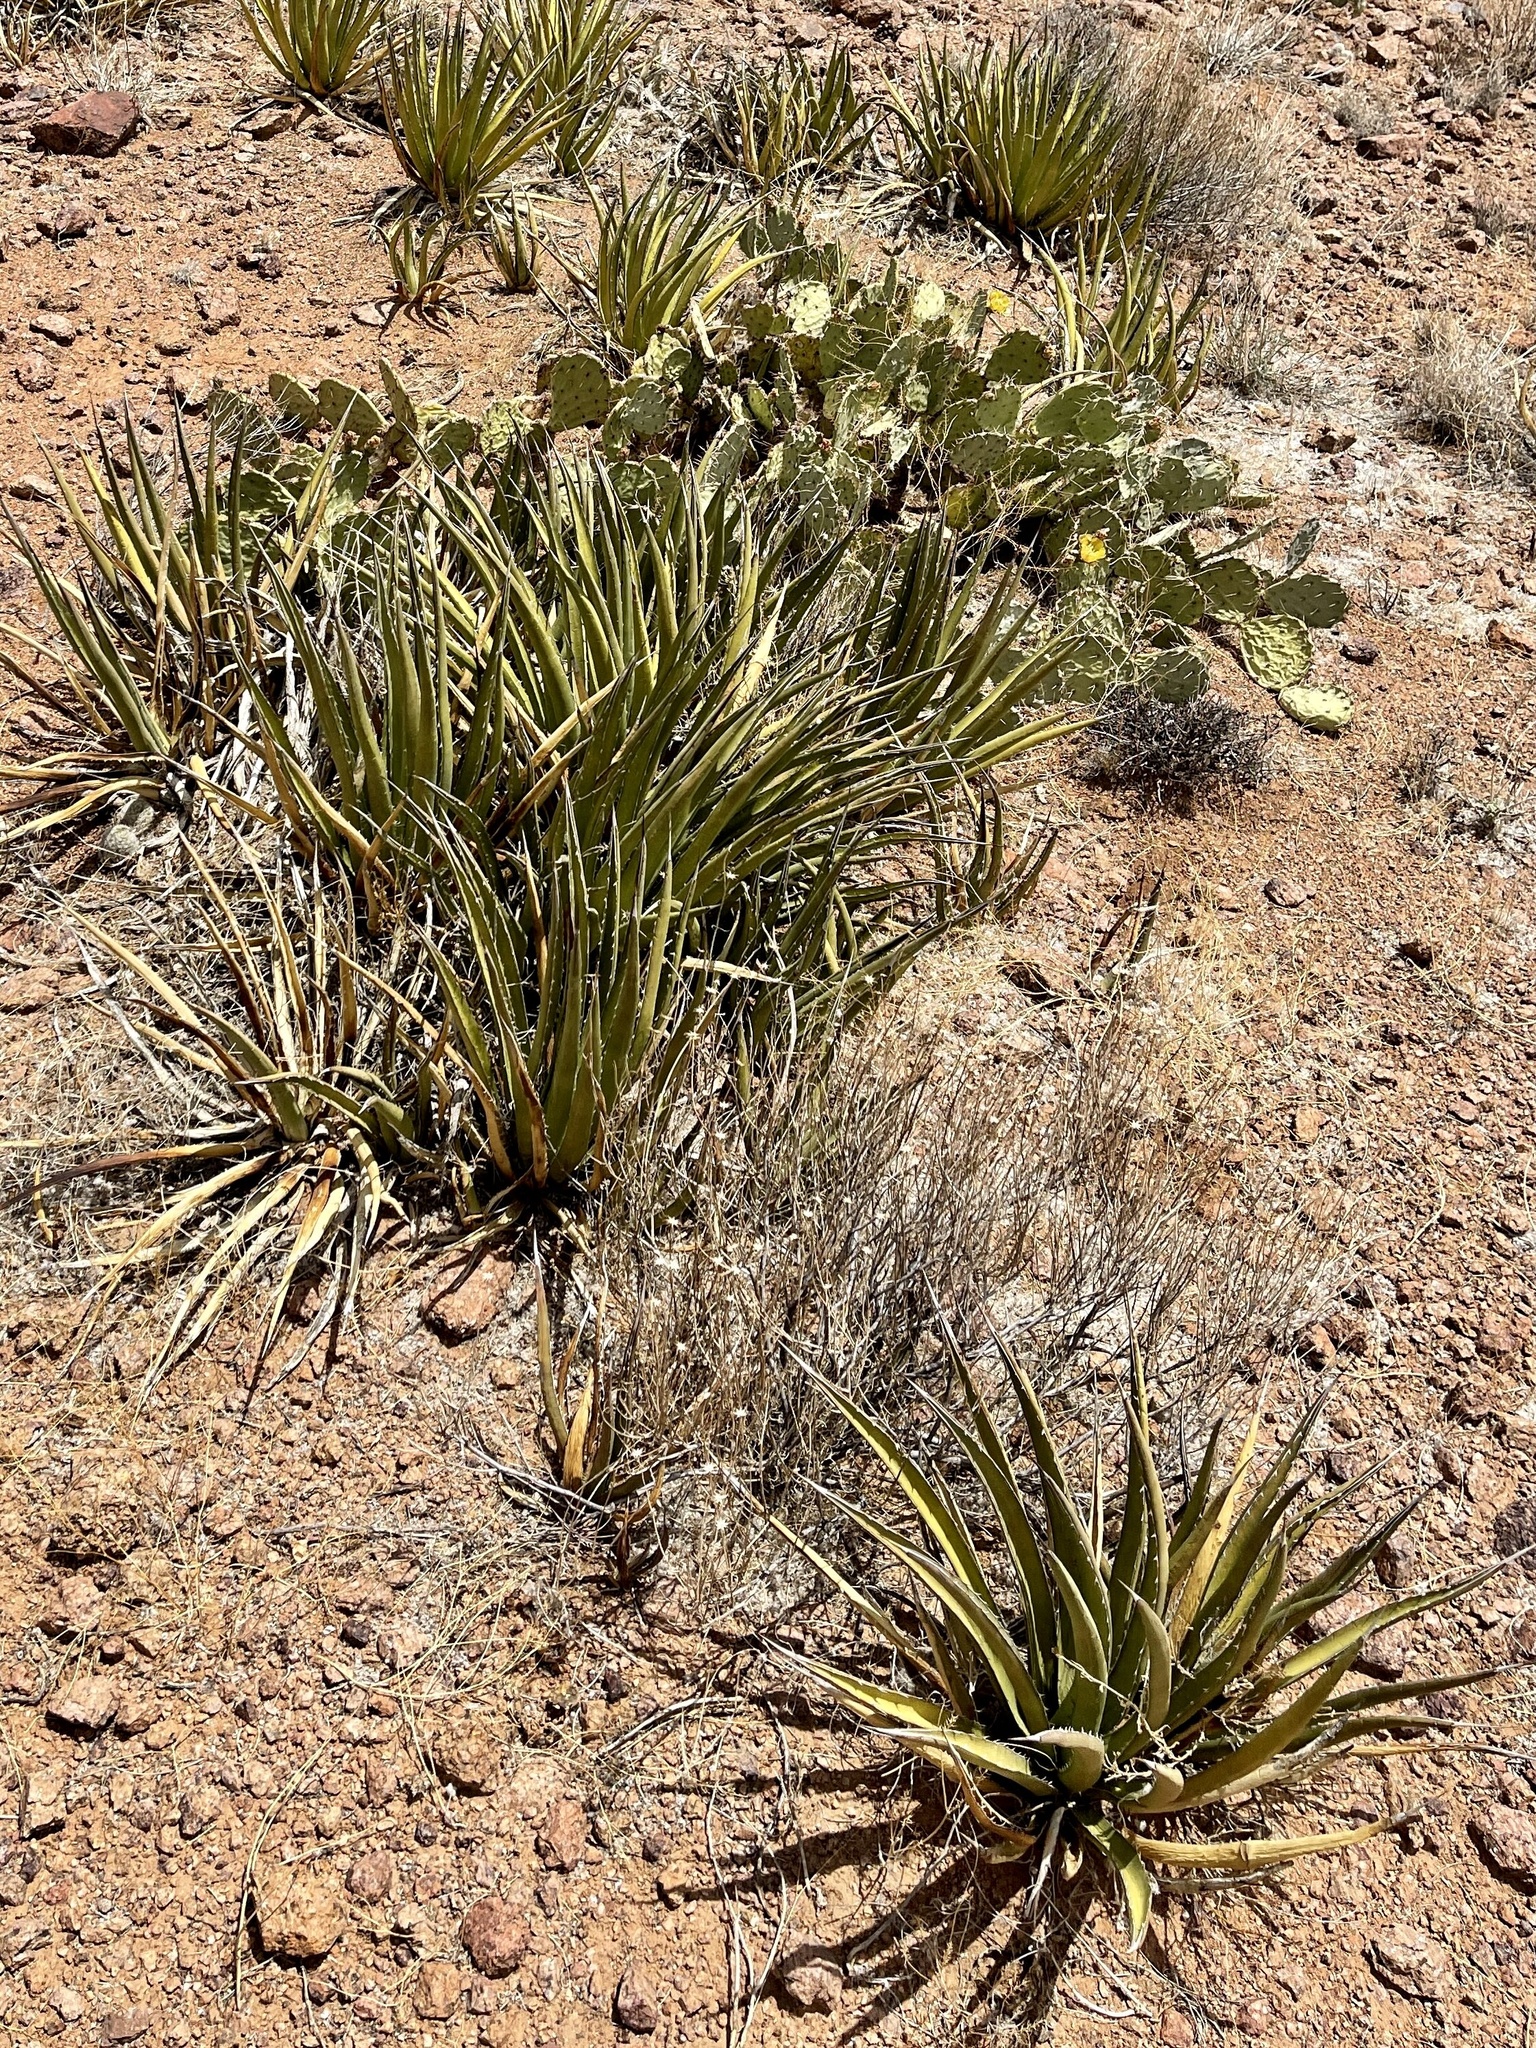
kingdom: Plantae
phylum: Tracheophyta
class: Liliopsida
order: Asparagales
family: Asparagaceae
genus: Agave
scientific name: Agave lechuguilla
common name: Lecheguilla agave
